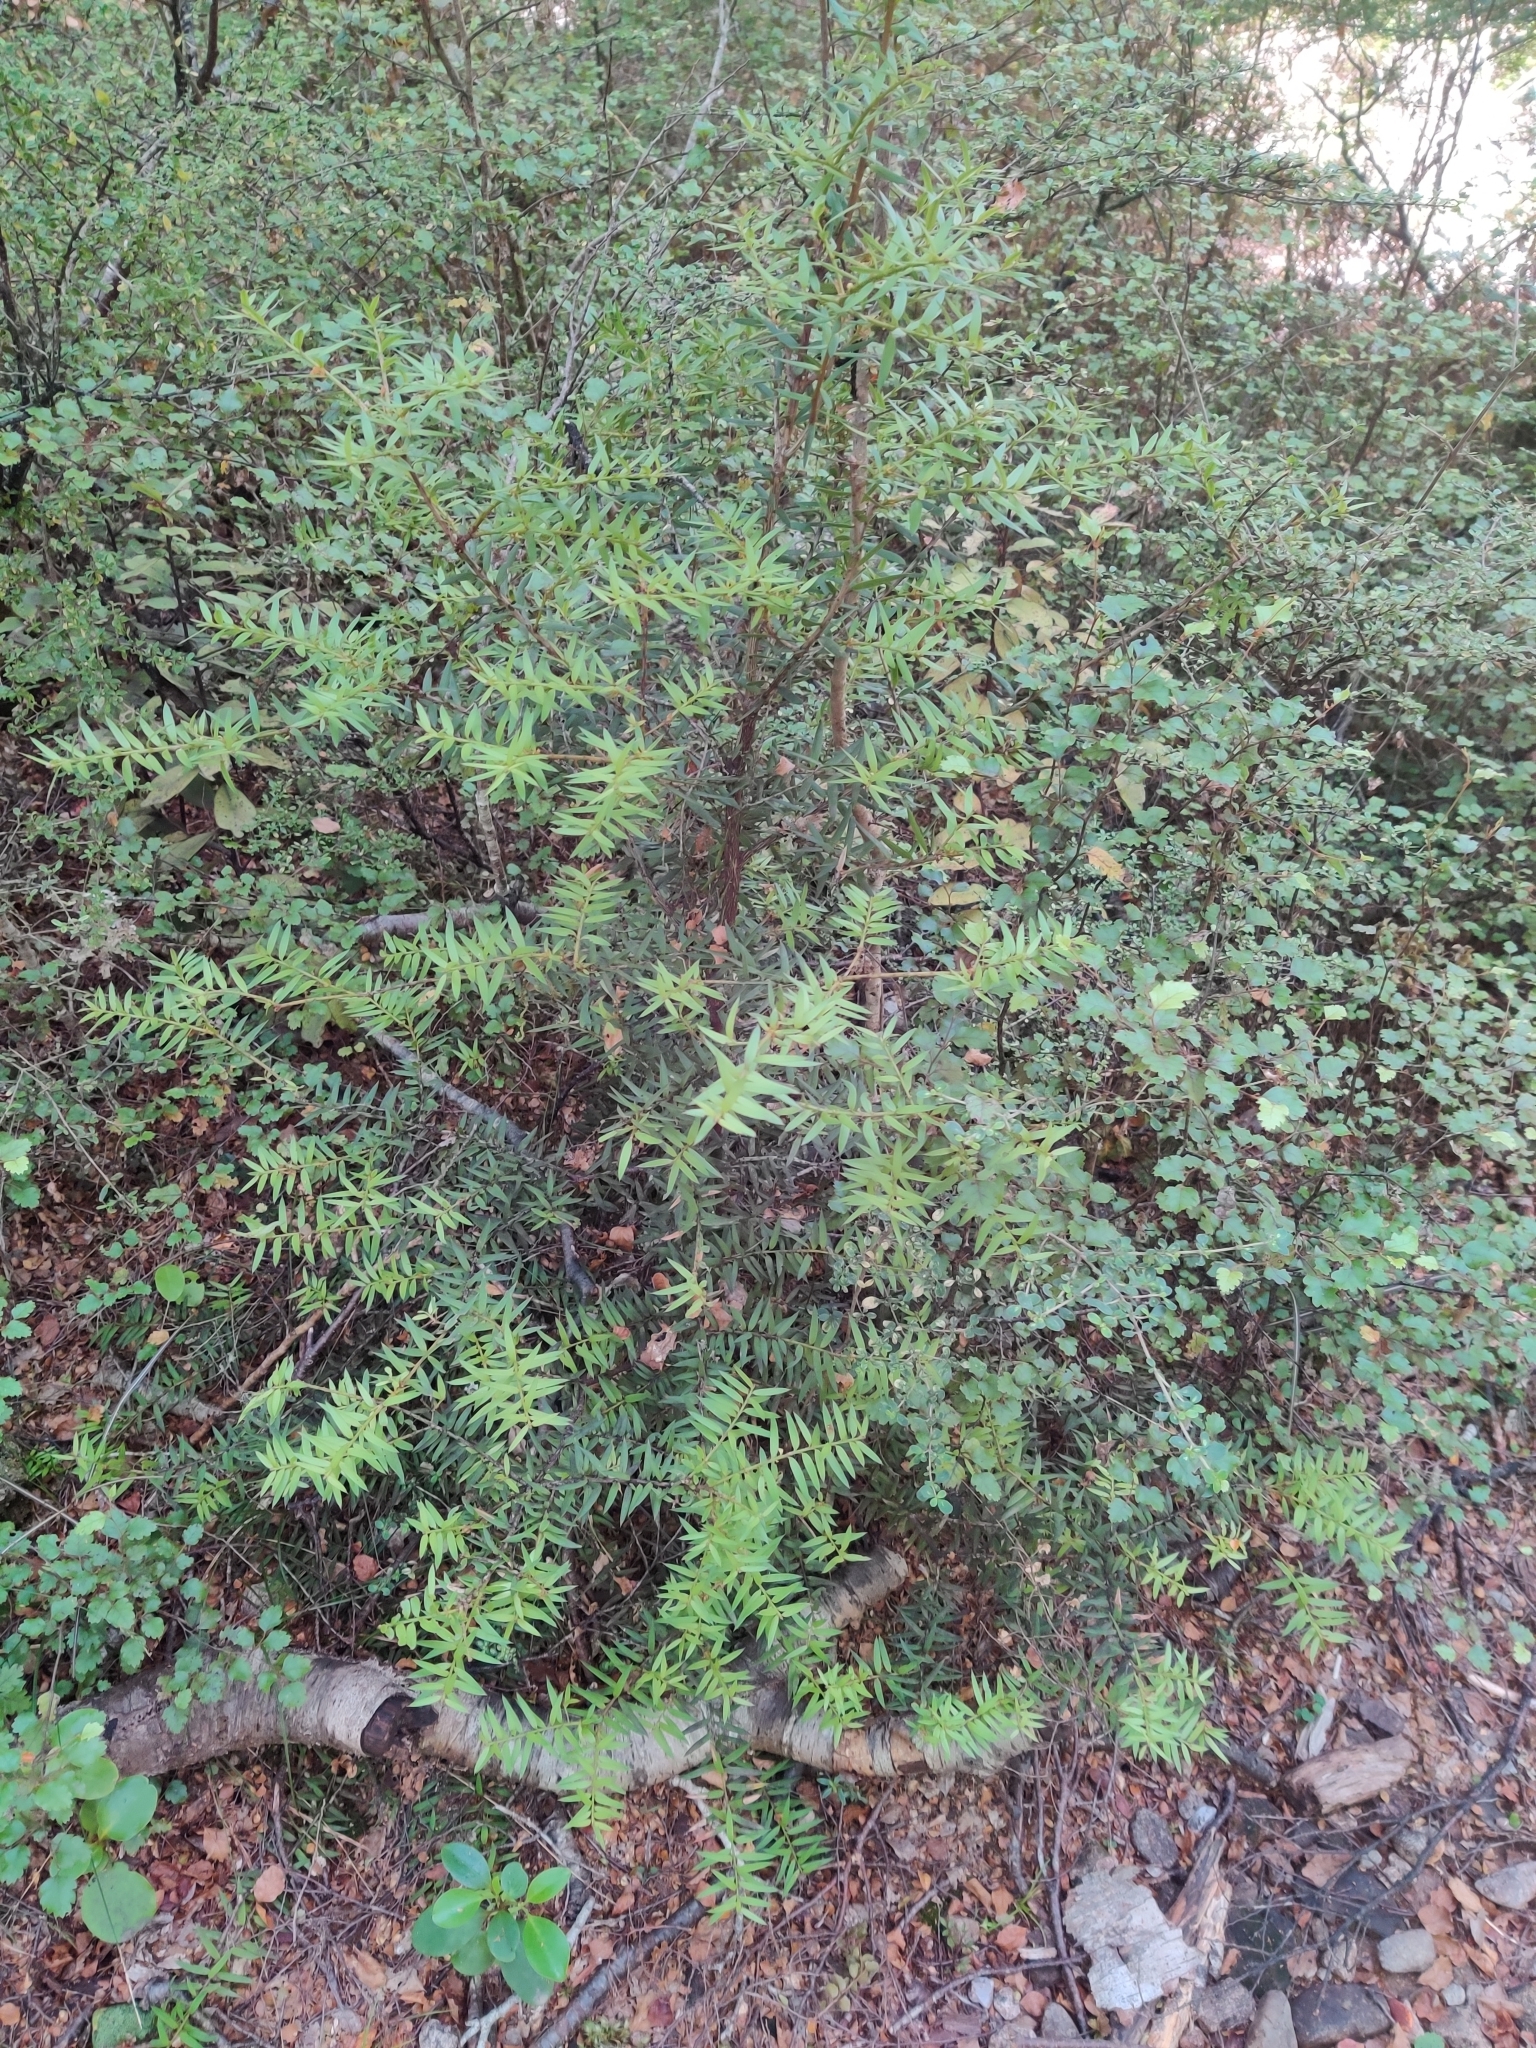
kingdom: Plantae
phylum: Tracheophyta
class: Pinopsida
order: Pinales
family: Podocarpaceae
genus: Podocarpus
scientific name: Podocarpus totara
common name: Totara
